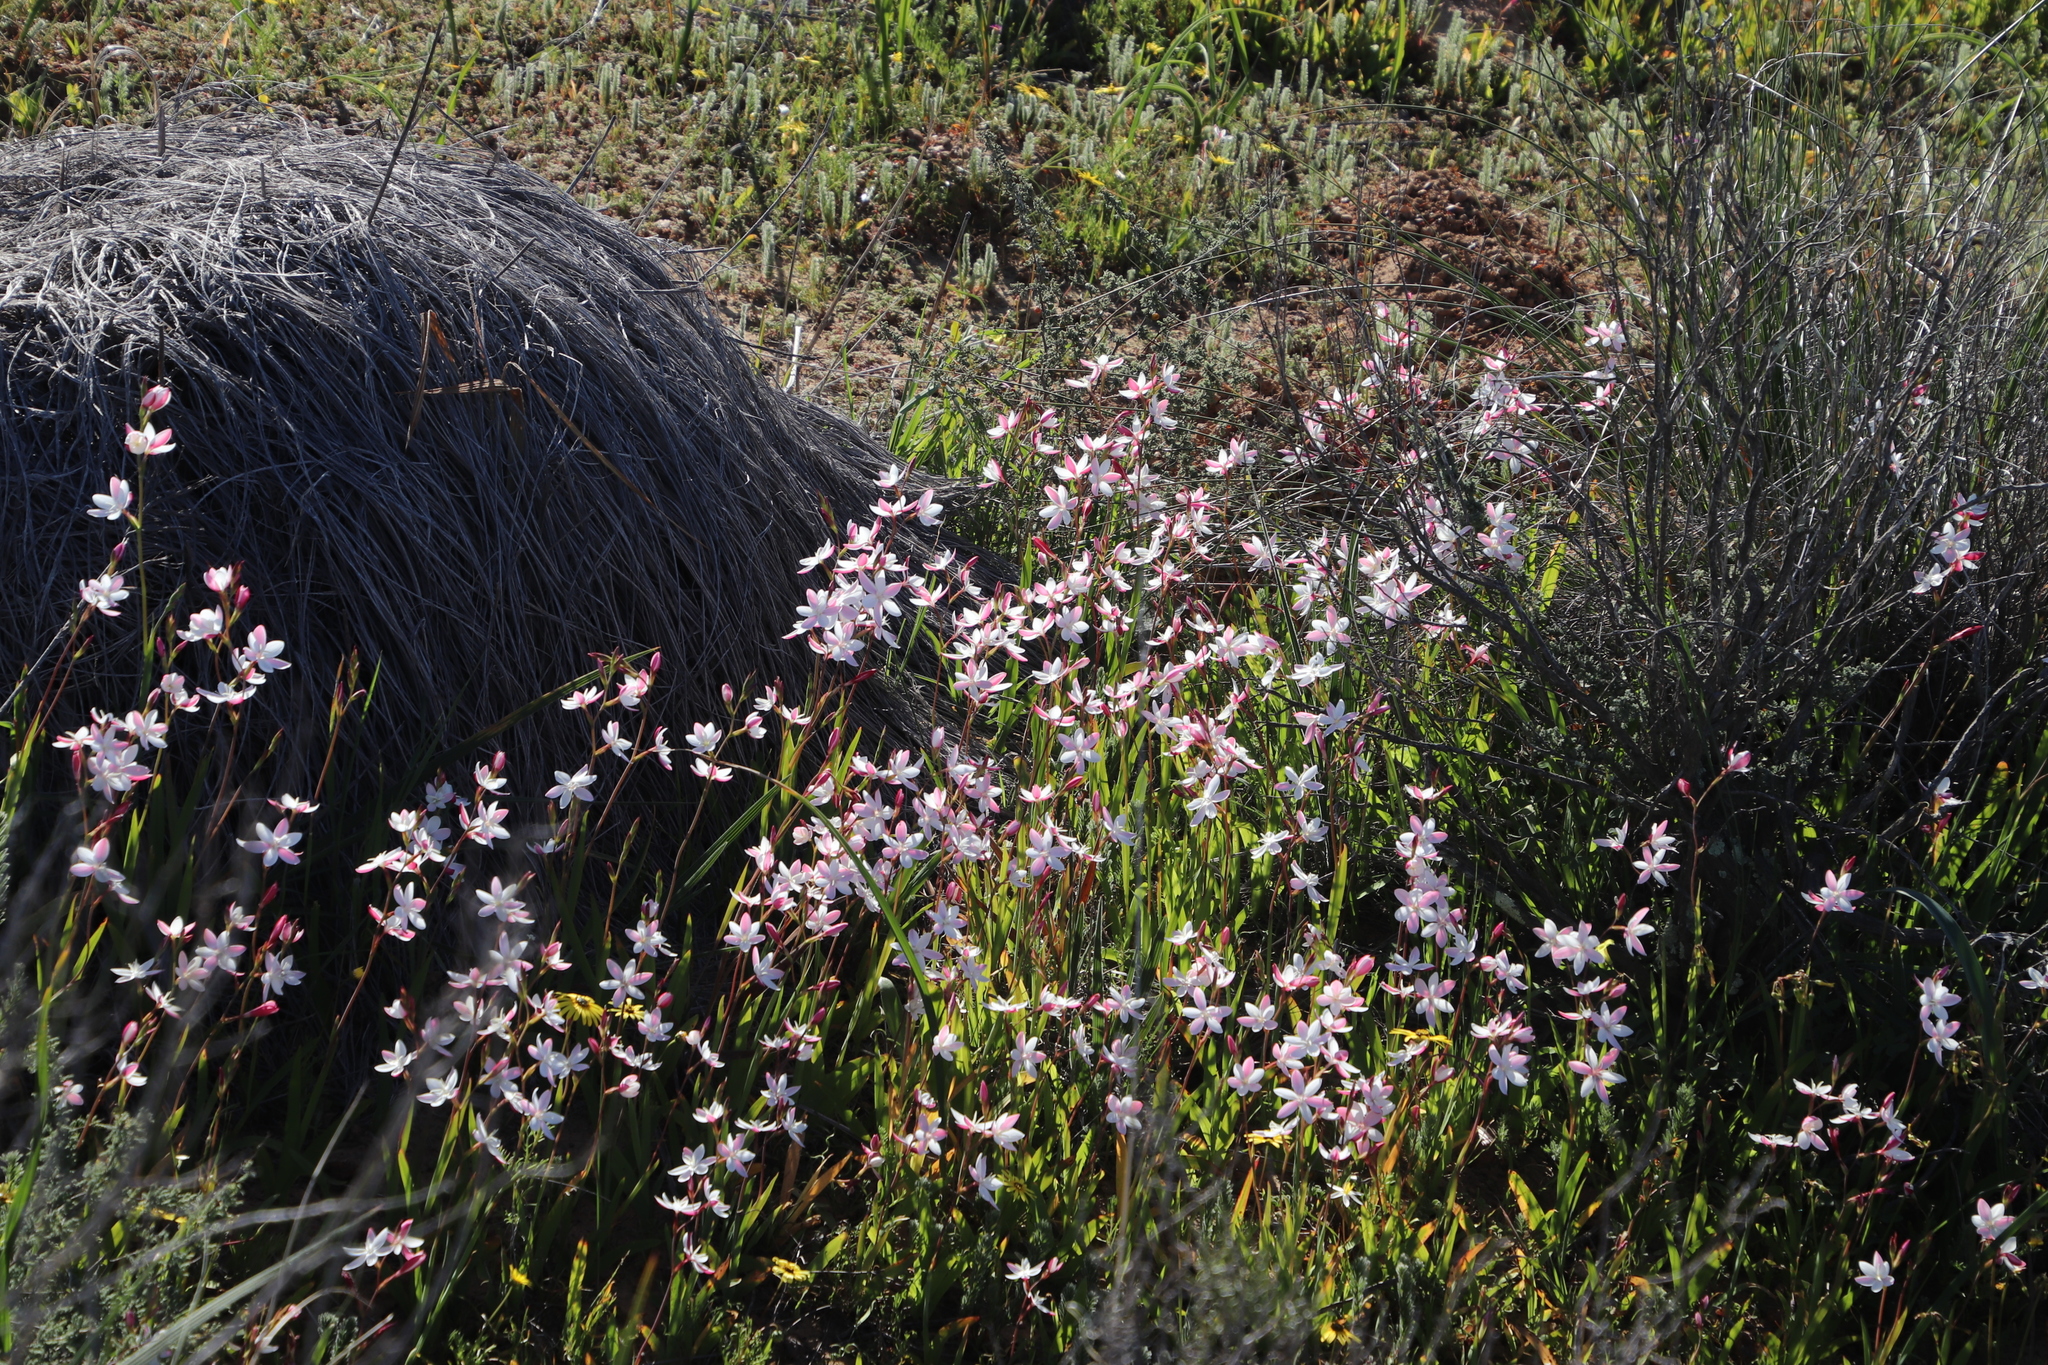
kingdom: Plantae
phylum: Tracheophyta
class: Liliopsida
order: Asparagales
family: Iridaceae
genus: Hesperantha
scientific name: Hesperantha cucullata
